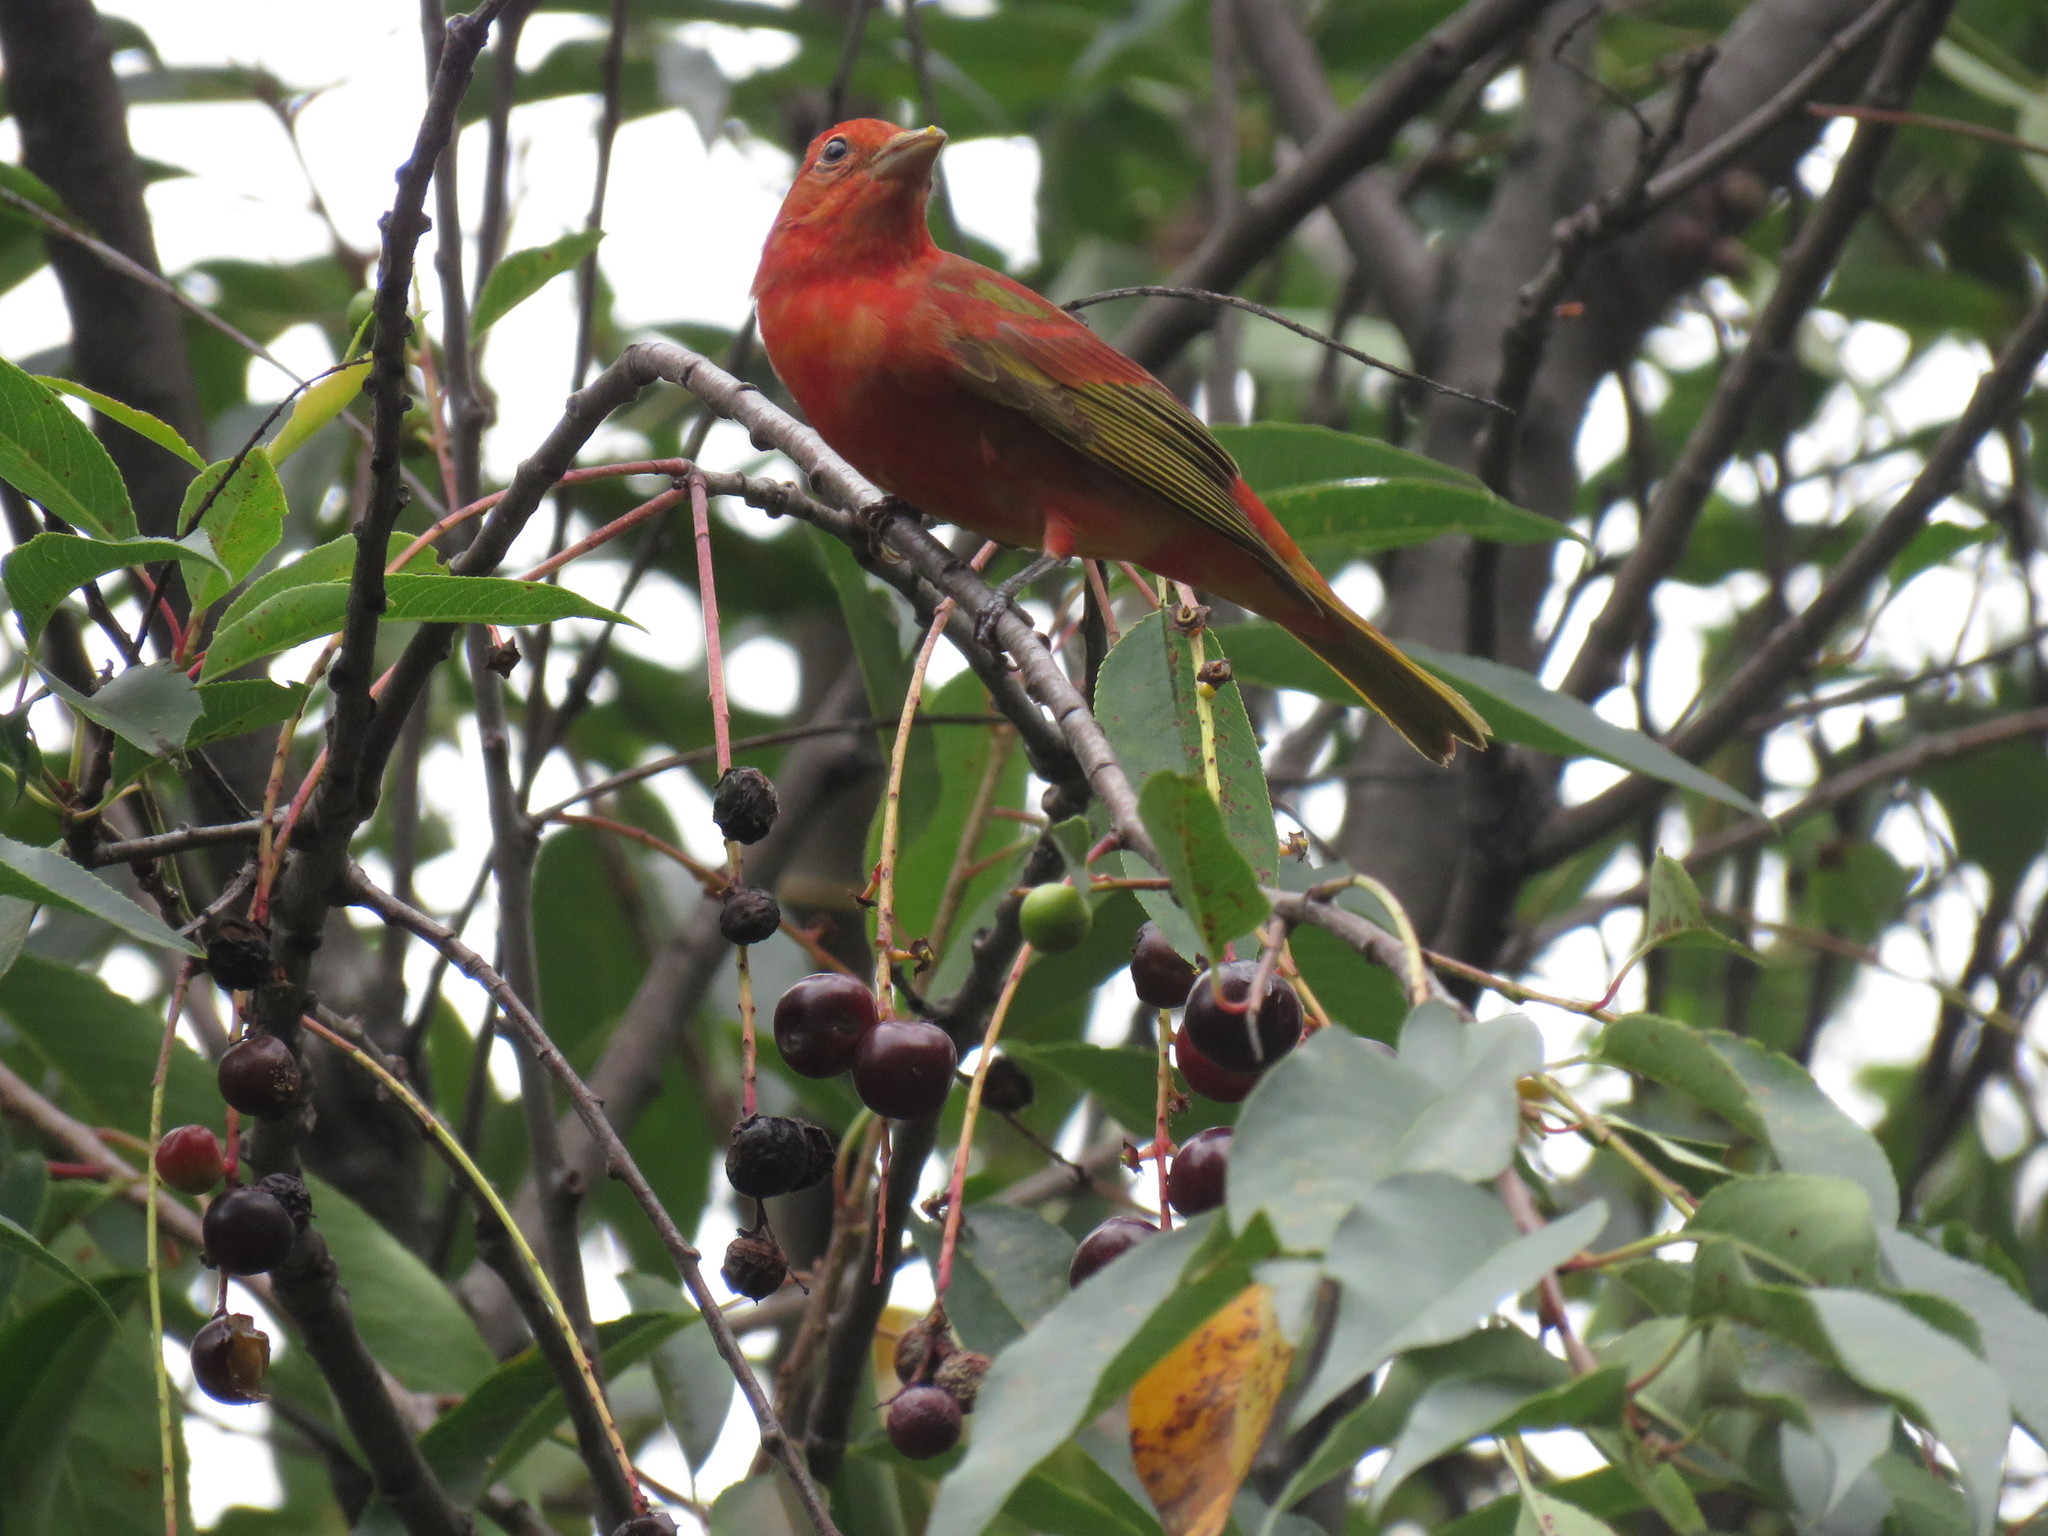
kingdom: Animalia
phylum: Chordata
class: Aves
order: Passeriformes
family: Cardinalidae
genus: Piranga
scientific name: Piranga rubra
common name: Summer tanager
